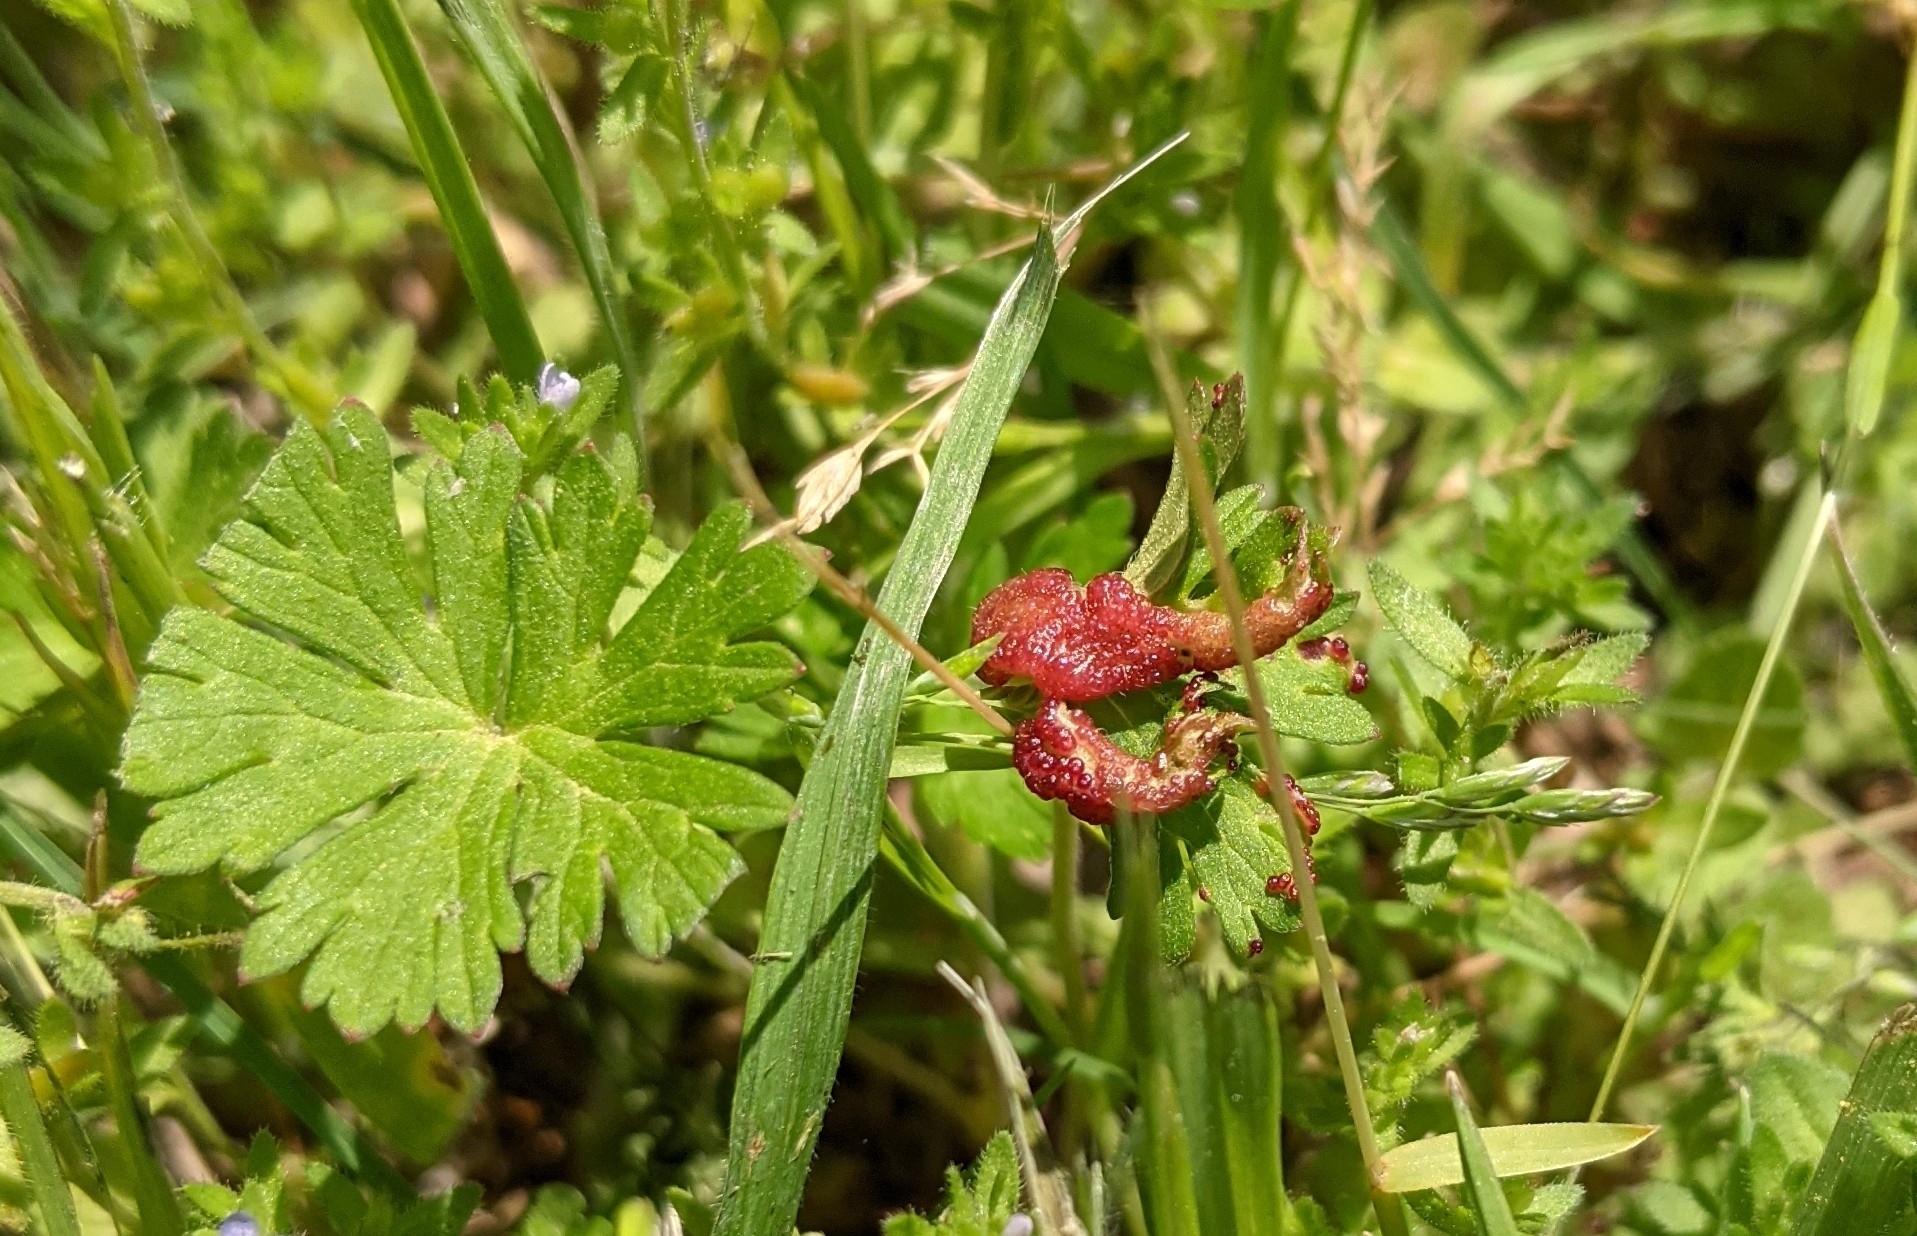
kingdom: Fungi
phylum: Chytridiomycota
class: Chytridiomycetes
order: Chytridiales
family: Synchytriaceae
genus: Synchytrium
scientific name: Synchytrium geranii
